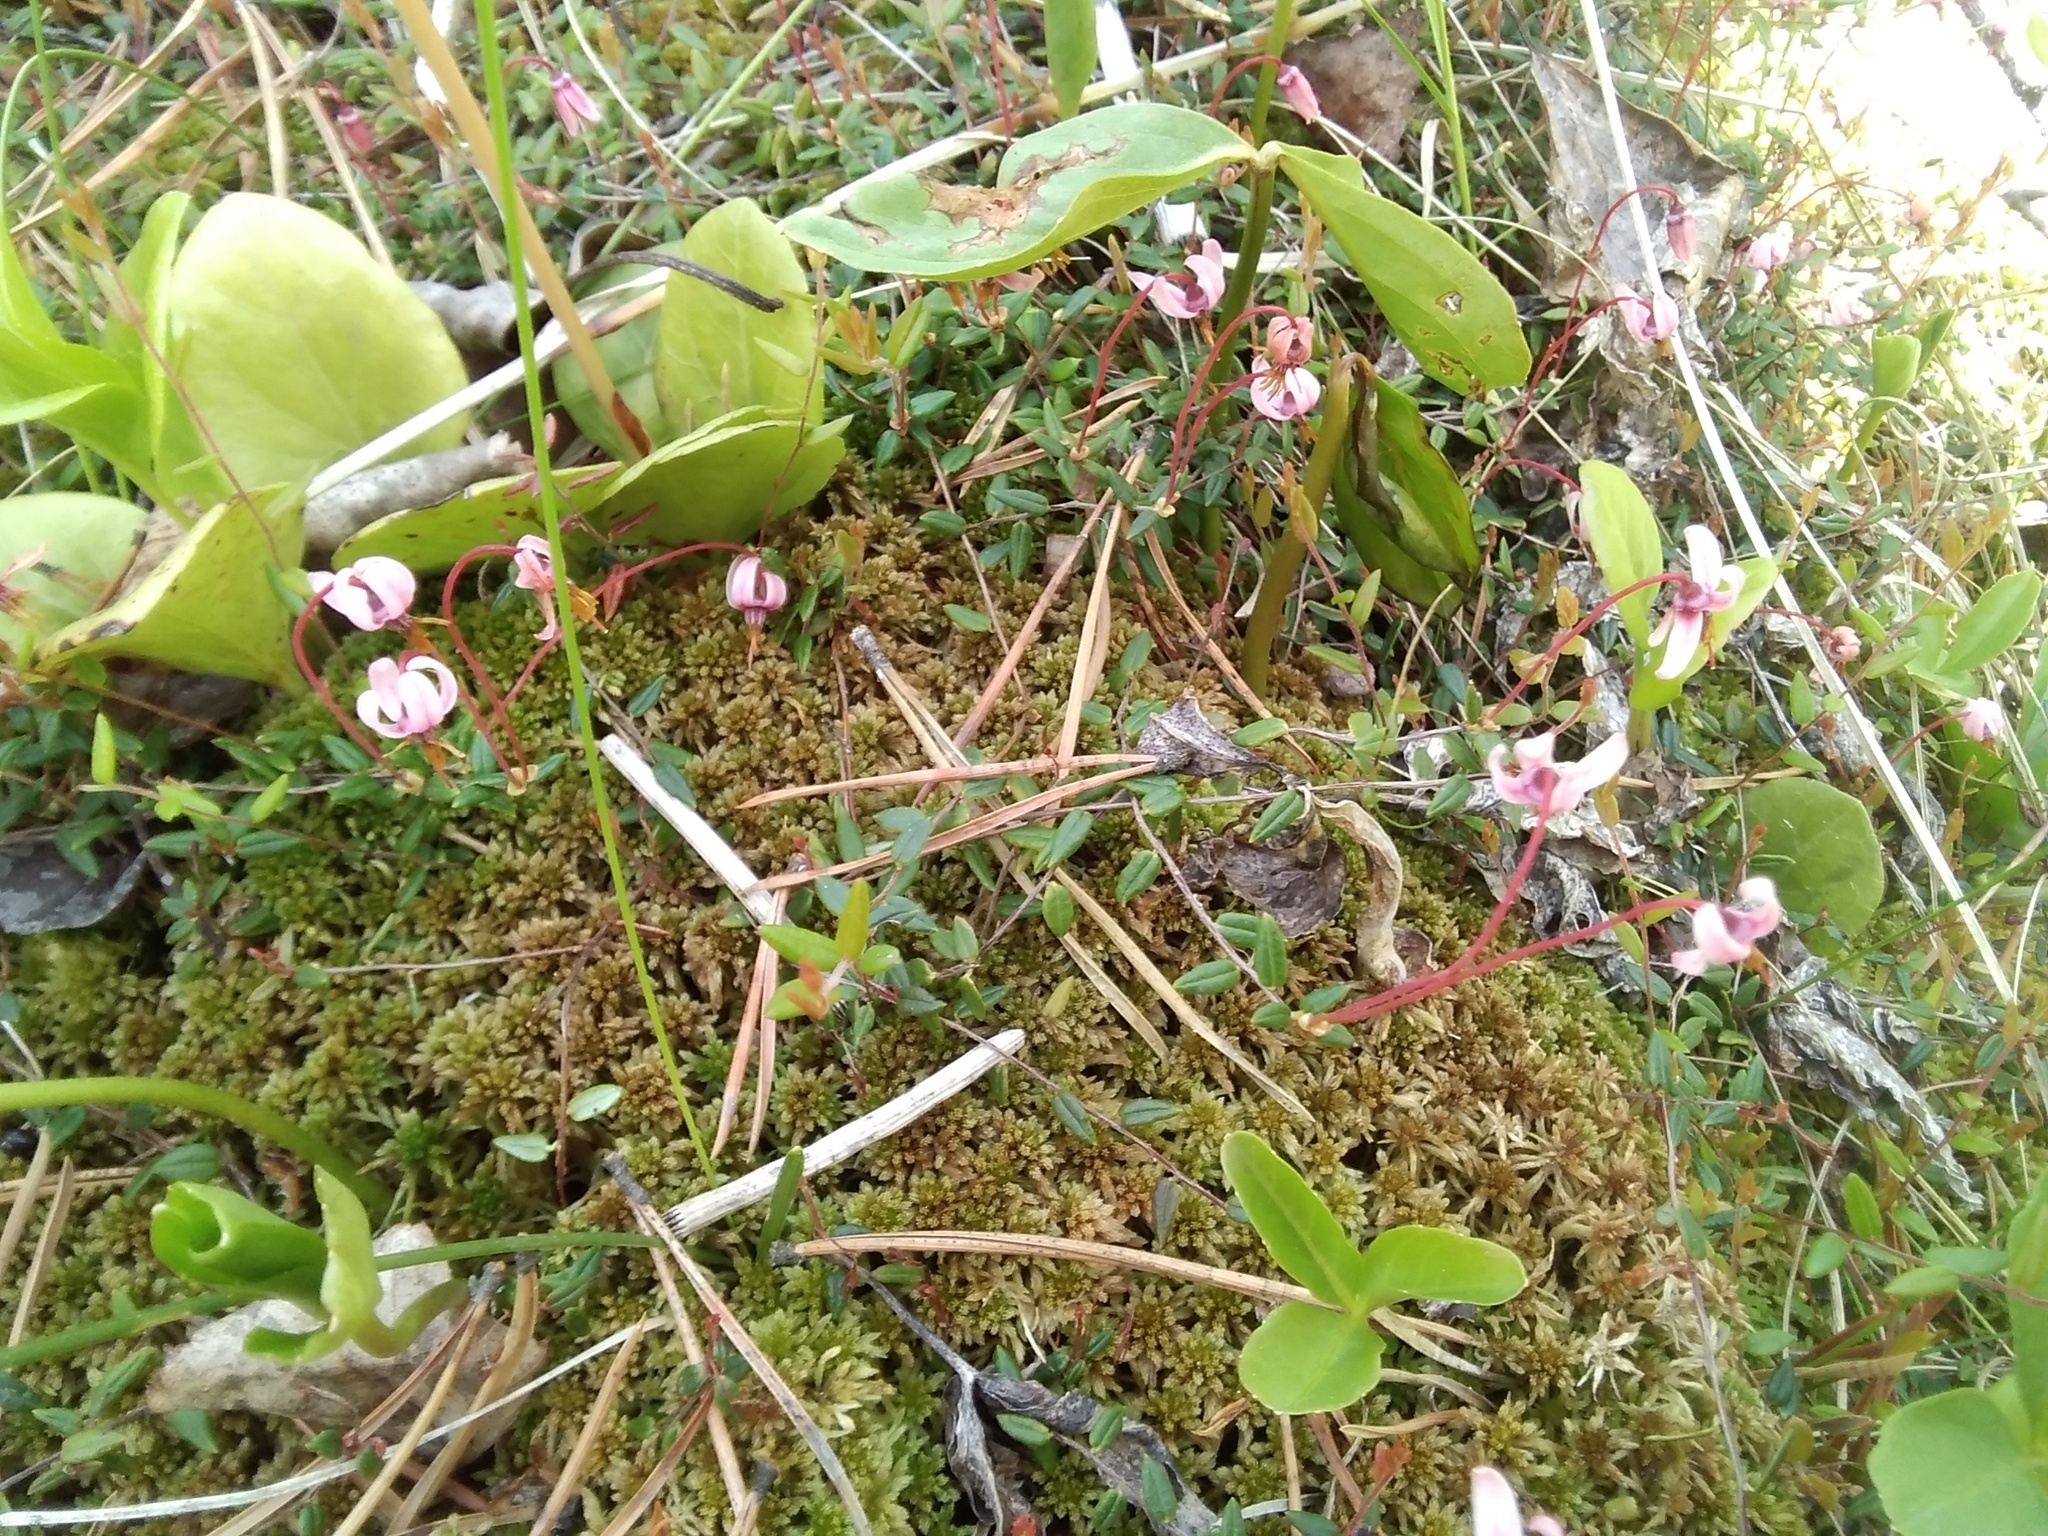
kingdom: Plantae
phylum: Tracheophyta
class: Magnoliopsida
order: Ericales
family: Ericaceae
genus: Vaccinium
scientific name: Vaccinium oxycoccos
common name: Cranberry
